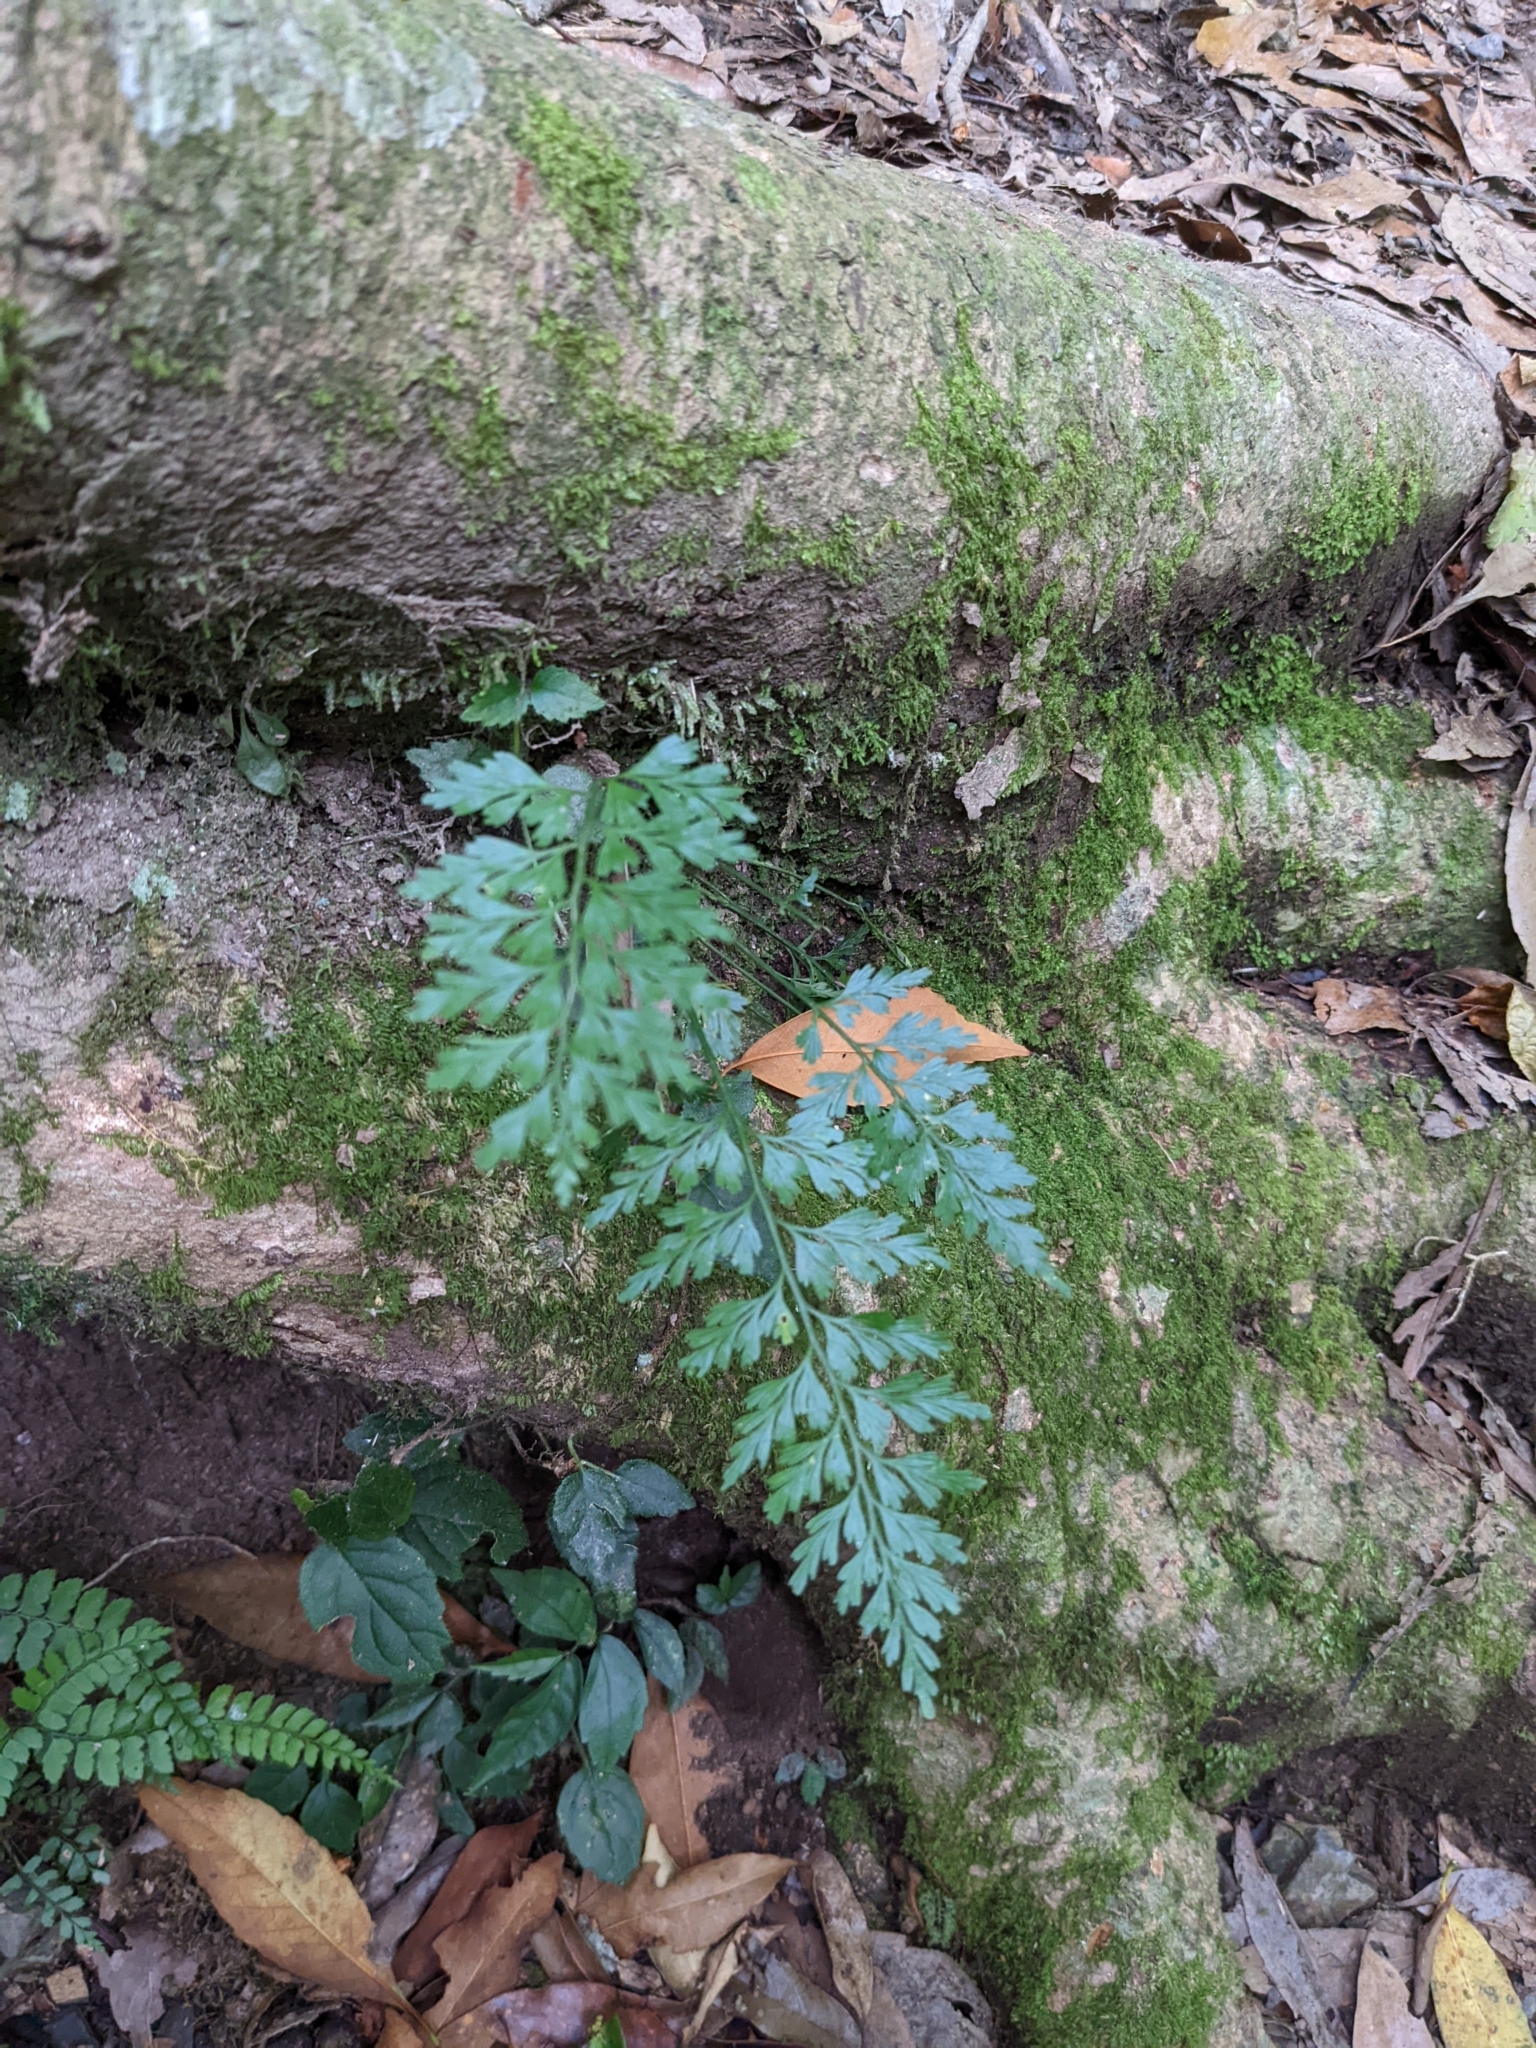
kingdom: Plantae
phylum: Tracheophyta
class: Polypodiopsida
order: Polypodiales
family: Aspleniaceae
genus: Asplenium
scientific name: Asplenium wilfordii
